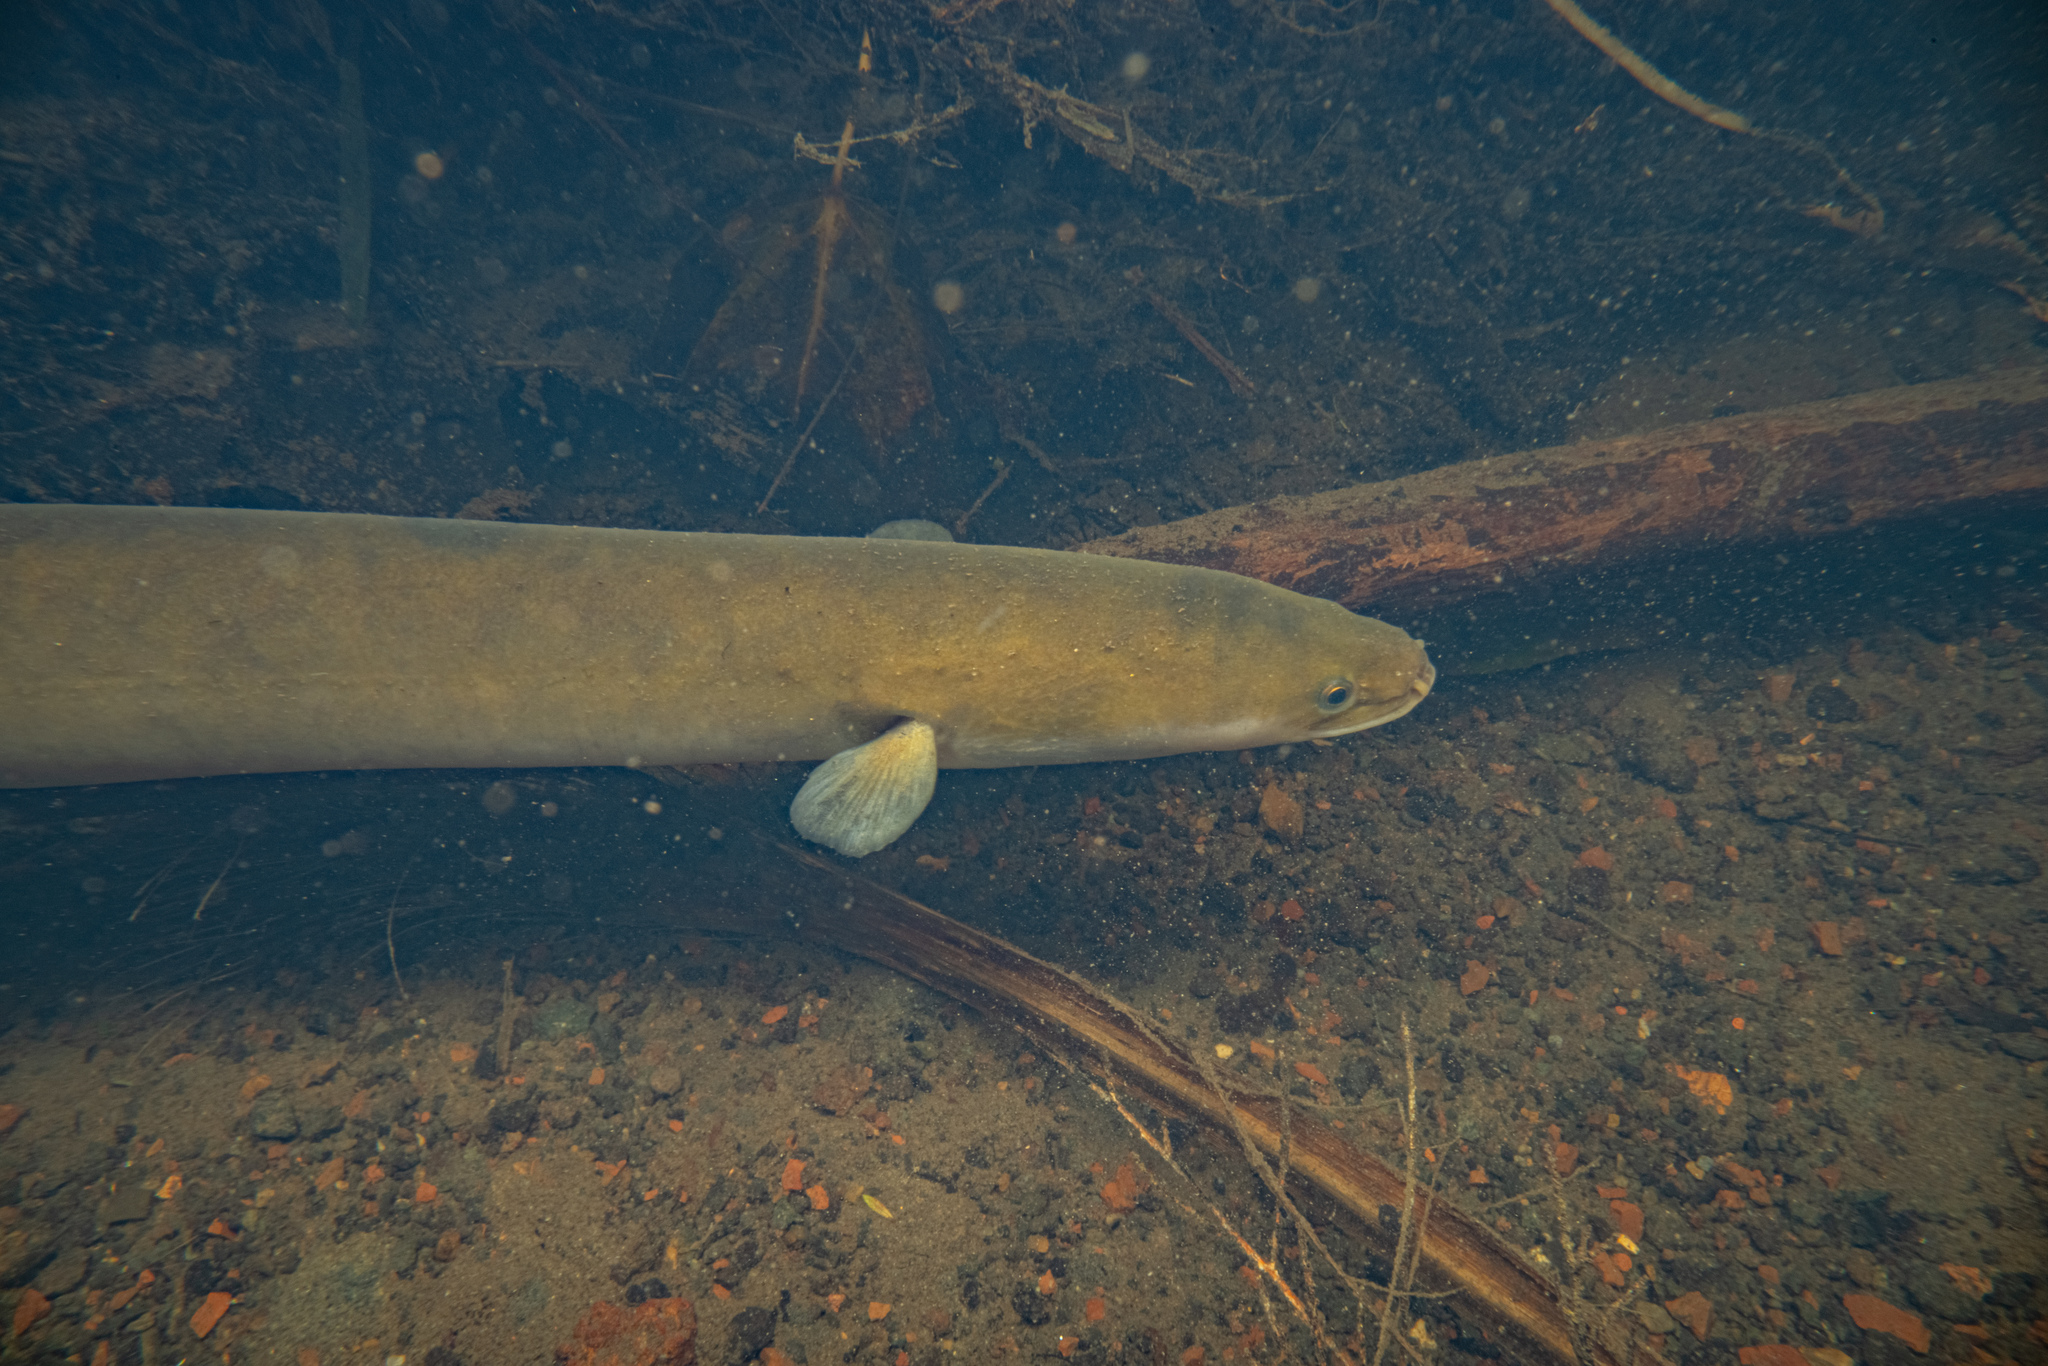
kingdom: Animalia
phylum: Chordata
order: Anguilliformes
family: Anguillidae
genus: Anguilla
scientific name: Anguilla australis
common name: Shortfin eel
